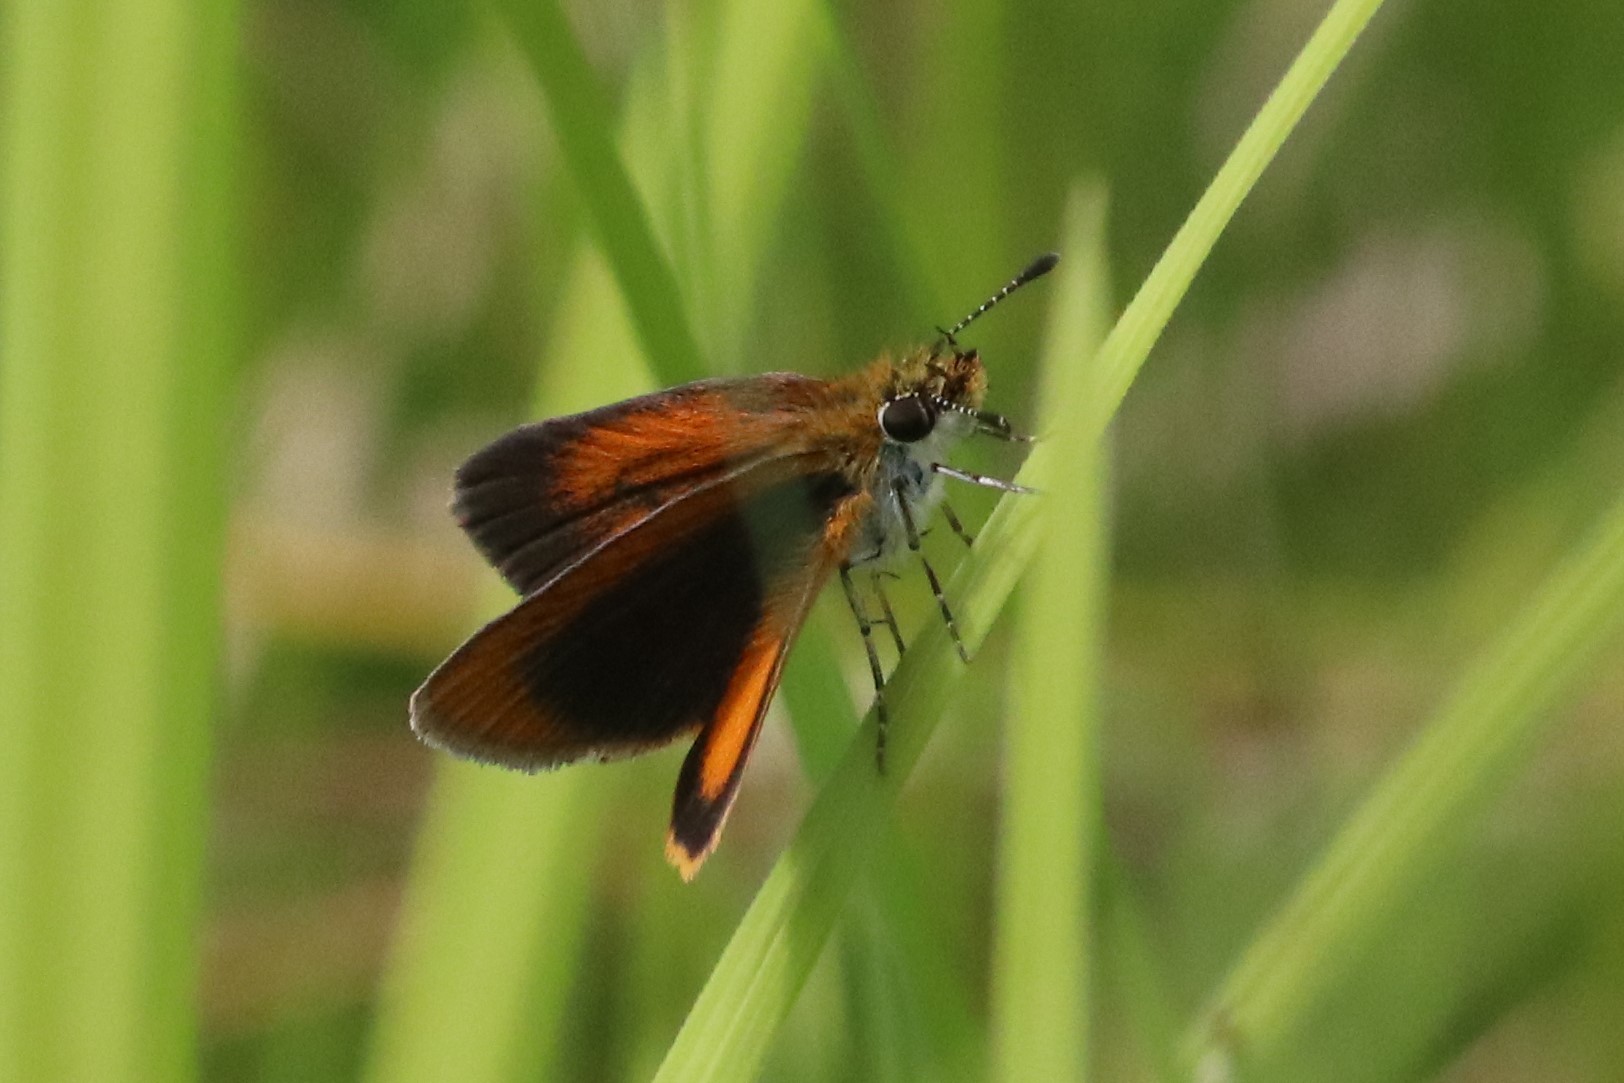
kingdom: Animalia
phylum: Arthropoda
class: Insecta
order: Lepidoptera
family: Hesperiidae
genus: Ancyloxypha
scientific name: Ancyloxypha numitor
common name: Least skipper
